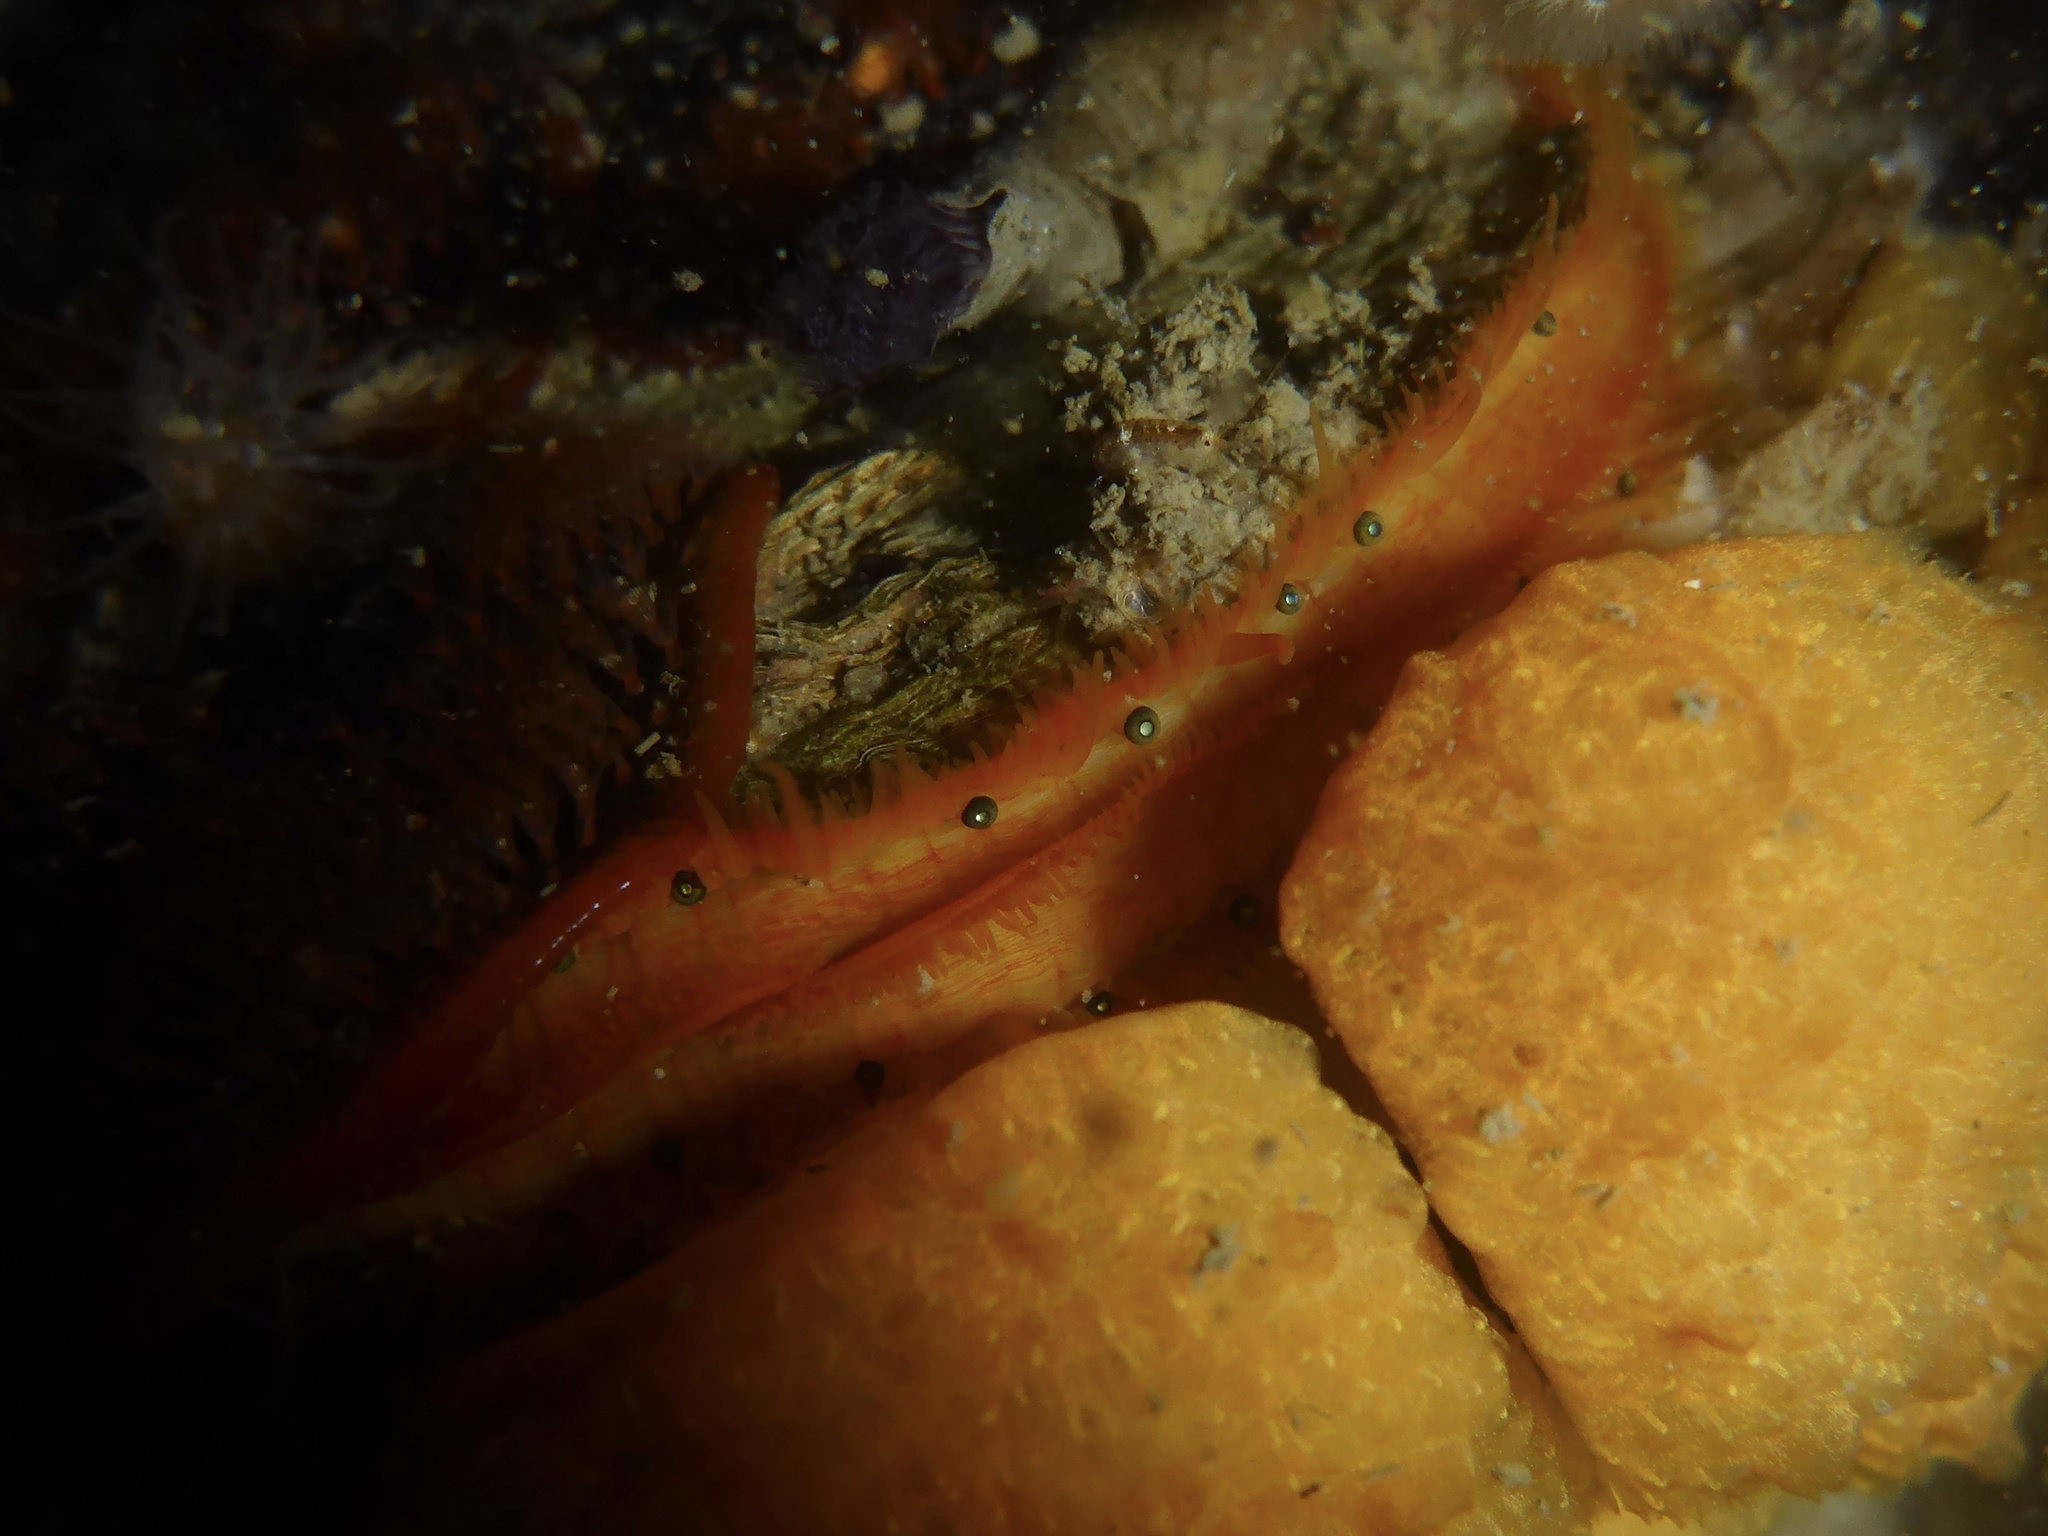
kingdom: Animalia
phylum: Mollusca
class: Bivalvia
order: Pectinida
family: Pectinidae
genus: Crassadoma
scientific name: Crassadoma gigantea
